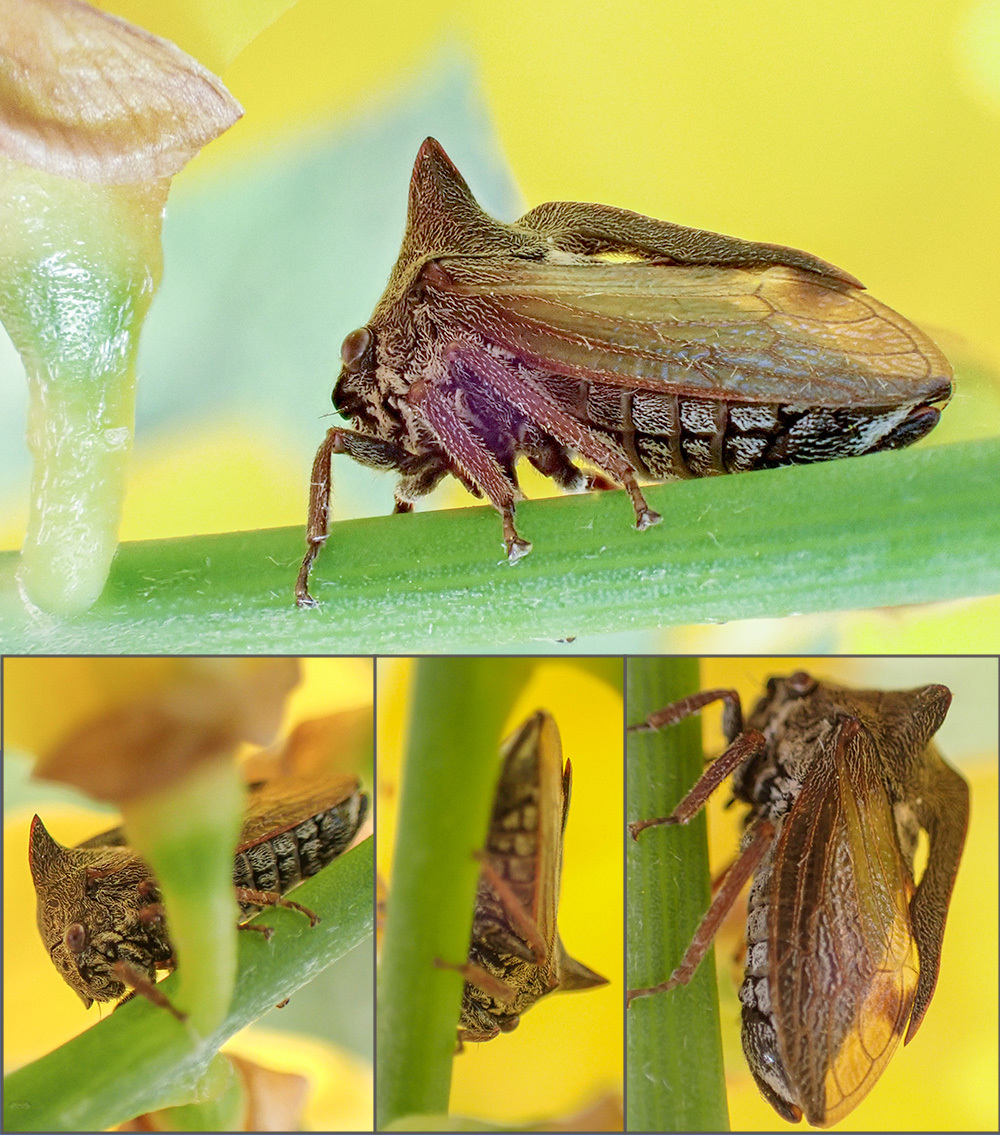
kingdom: Animalia
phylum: Arthropoda
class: Insecta
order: Hemiptera
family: Membracidae
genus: Centrotus
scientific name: Centrotus cornuta
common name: Treehopper
